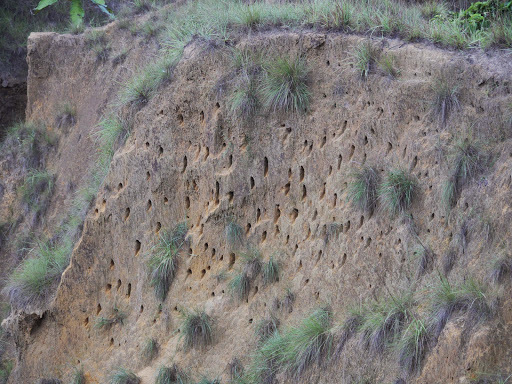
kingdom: Animalia
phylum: Chordata
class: Aves
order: Coraciiformes
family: Meropidae
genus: Merops
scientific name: Merops bullockoides
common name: White-fronted bee-eater
